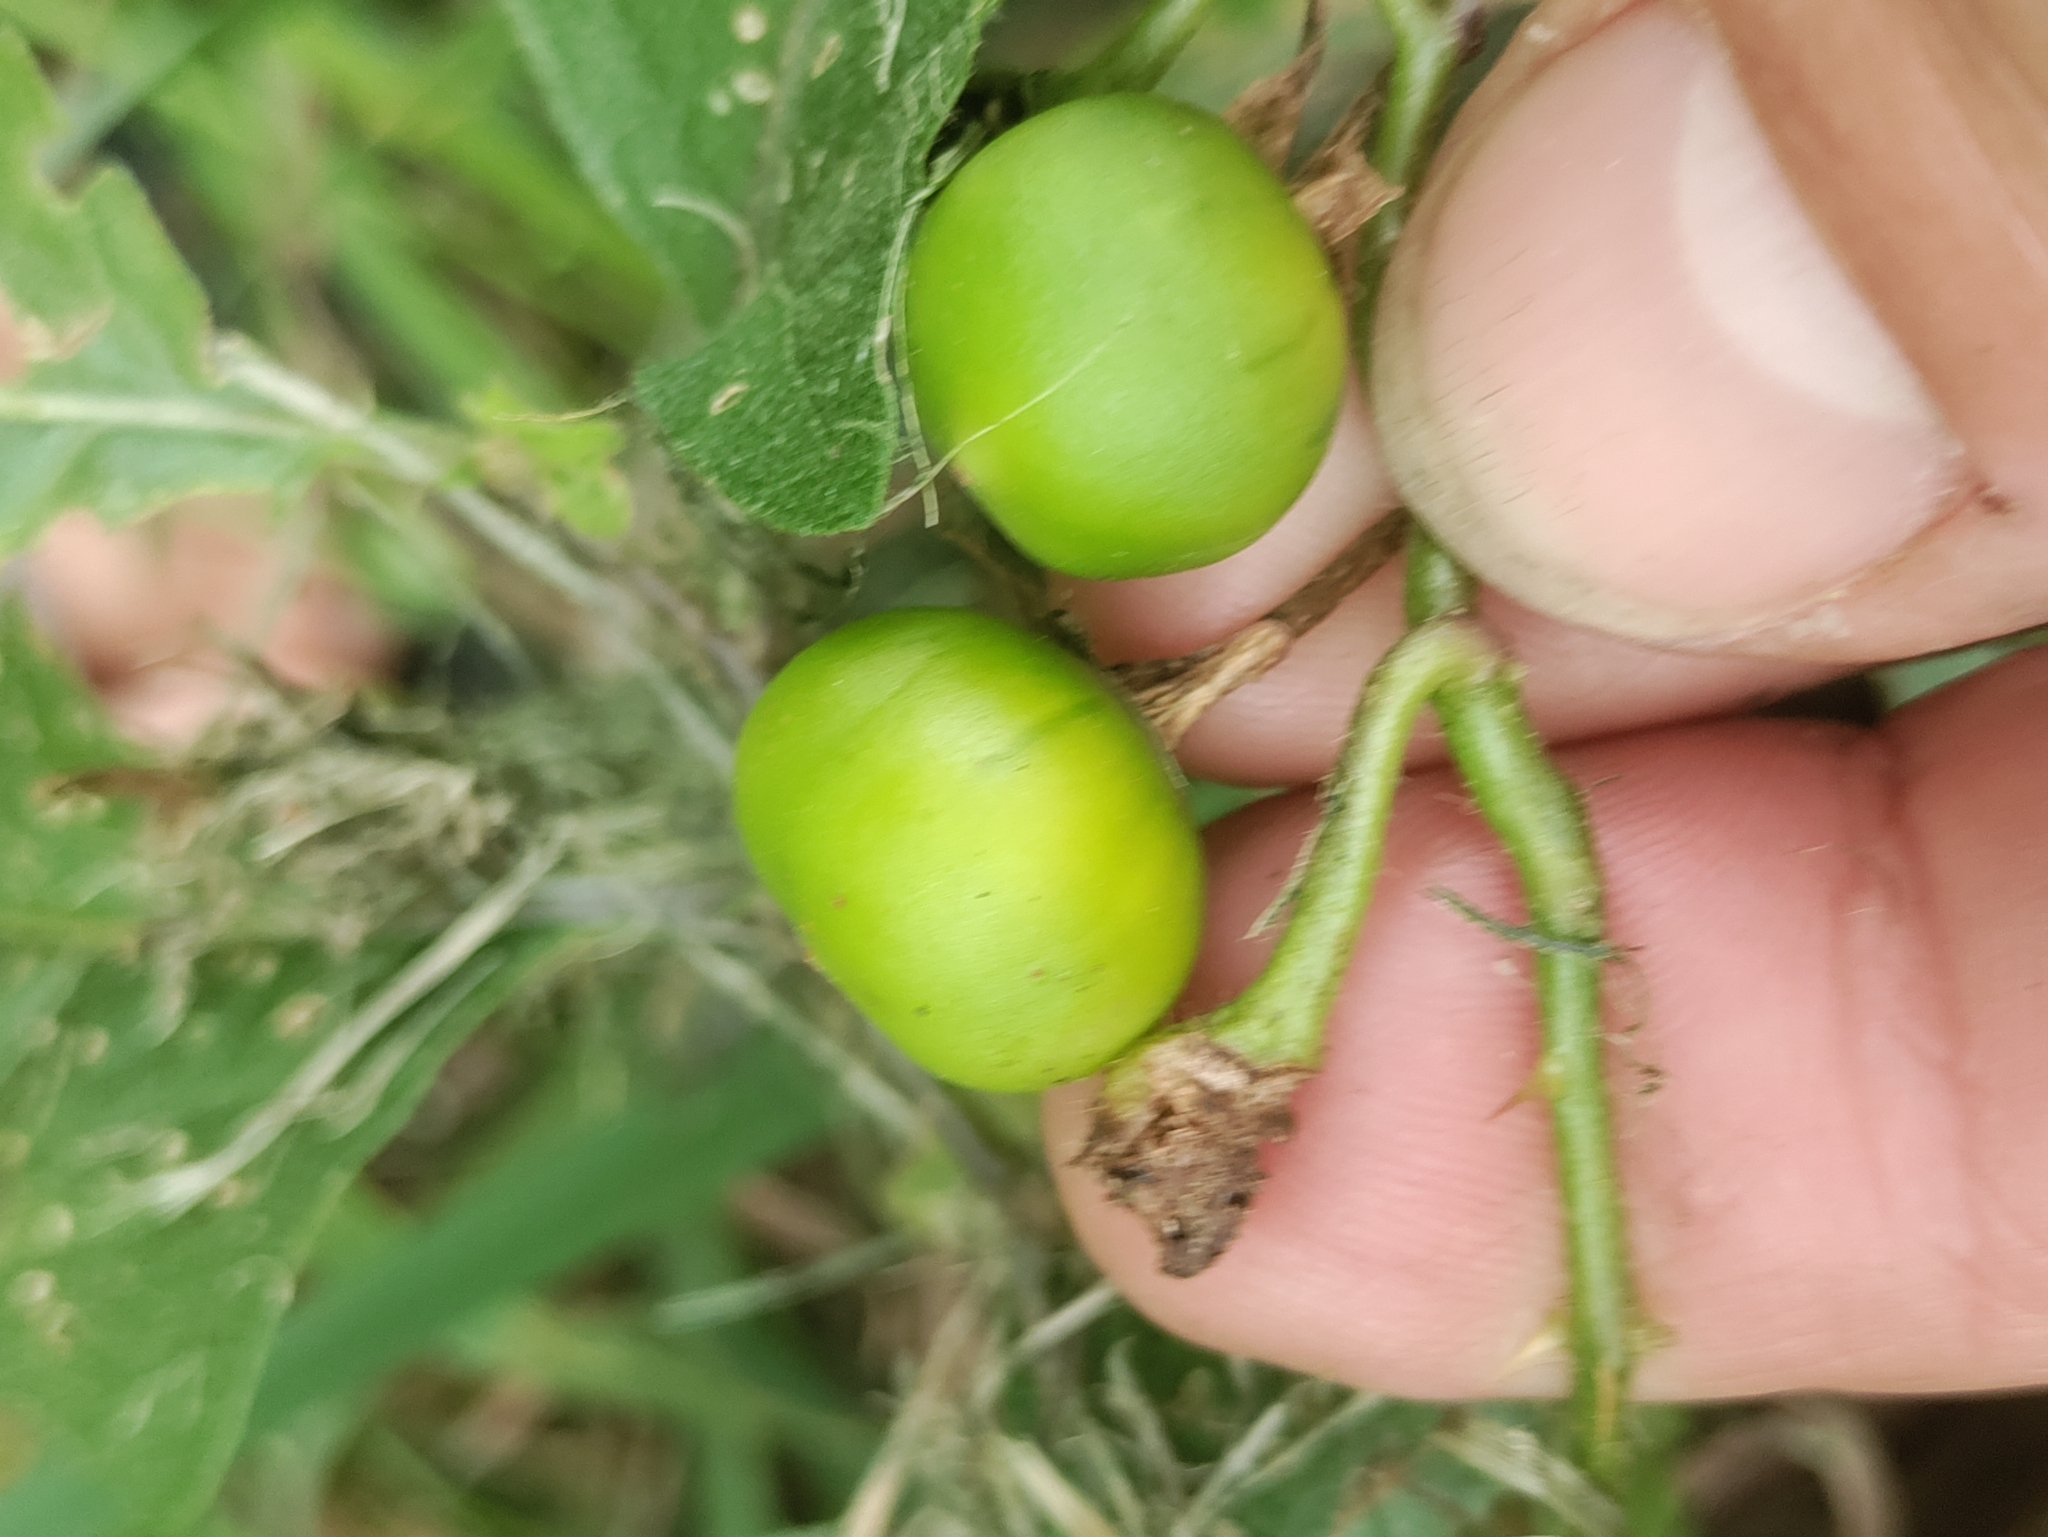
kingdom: Plantae
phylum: Tracheophyta
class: Magnoliopsida
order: Solanales
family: Solanaceae
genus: Solanum
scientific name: Solanum carolinense
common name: Horse-nettle
